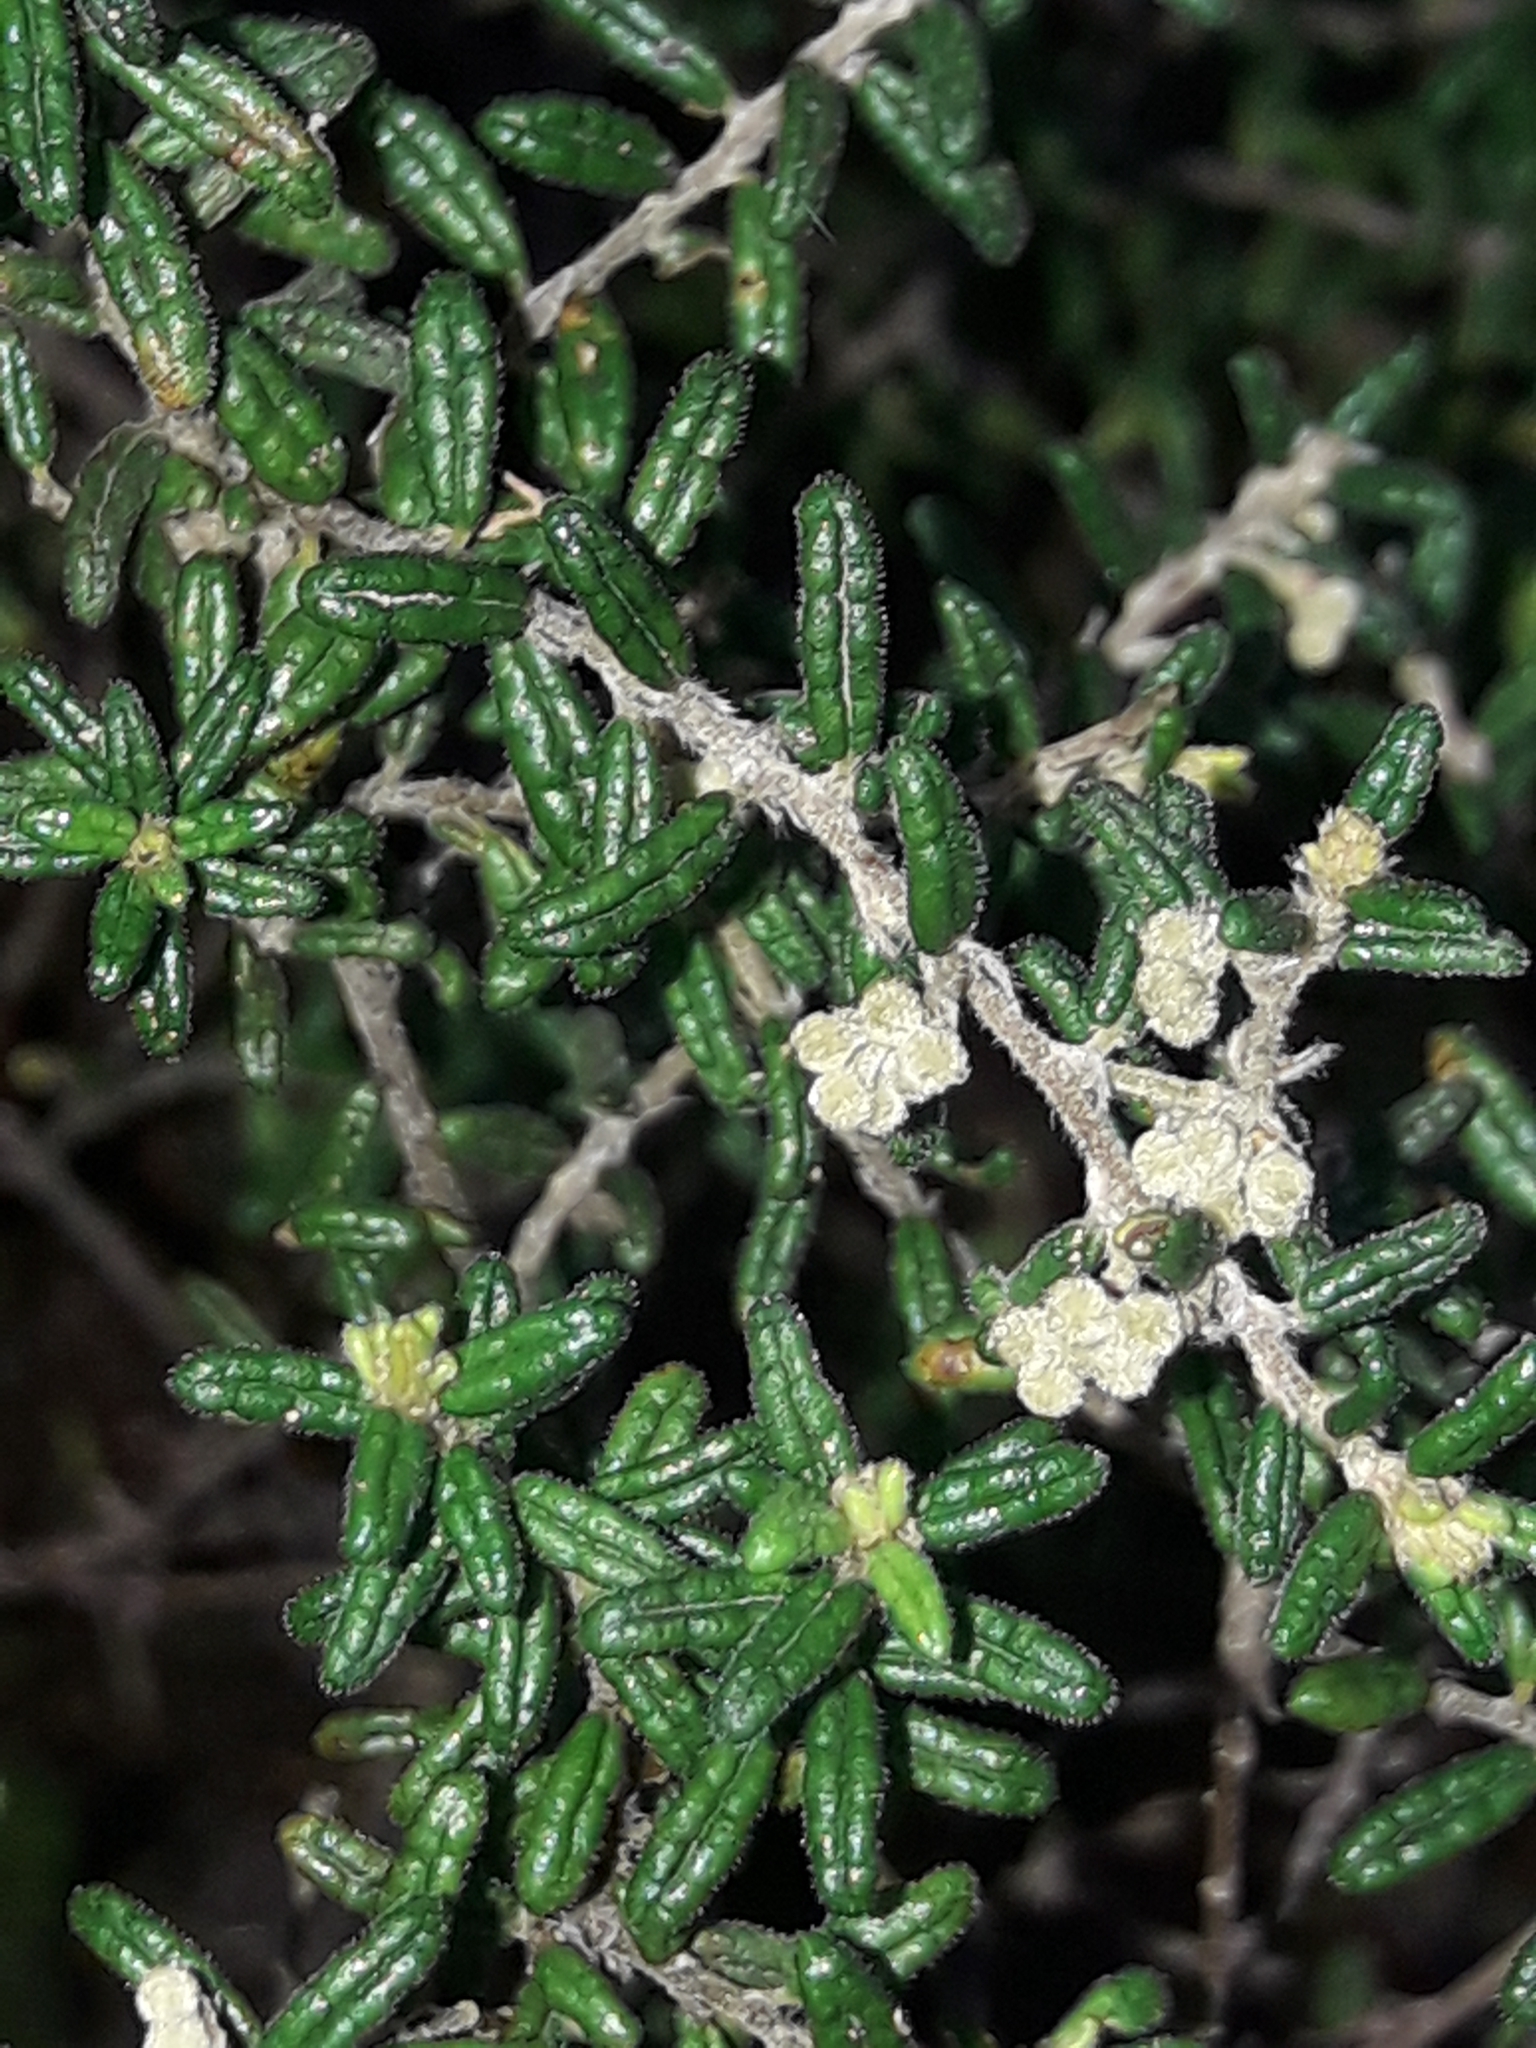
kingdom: Plantae
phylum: Tracheophyta
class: Magnoliopsida
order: Rosales
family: Rhamnaceae
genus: Pomaderris
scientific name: Pomaderris amoena
